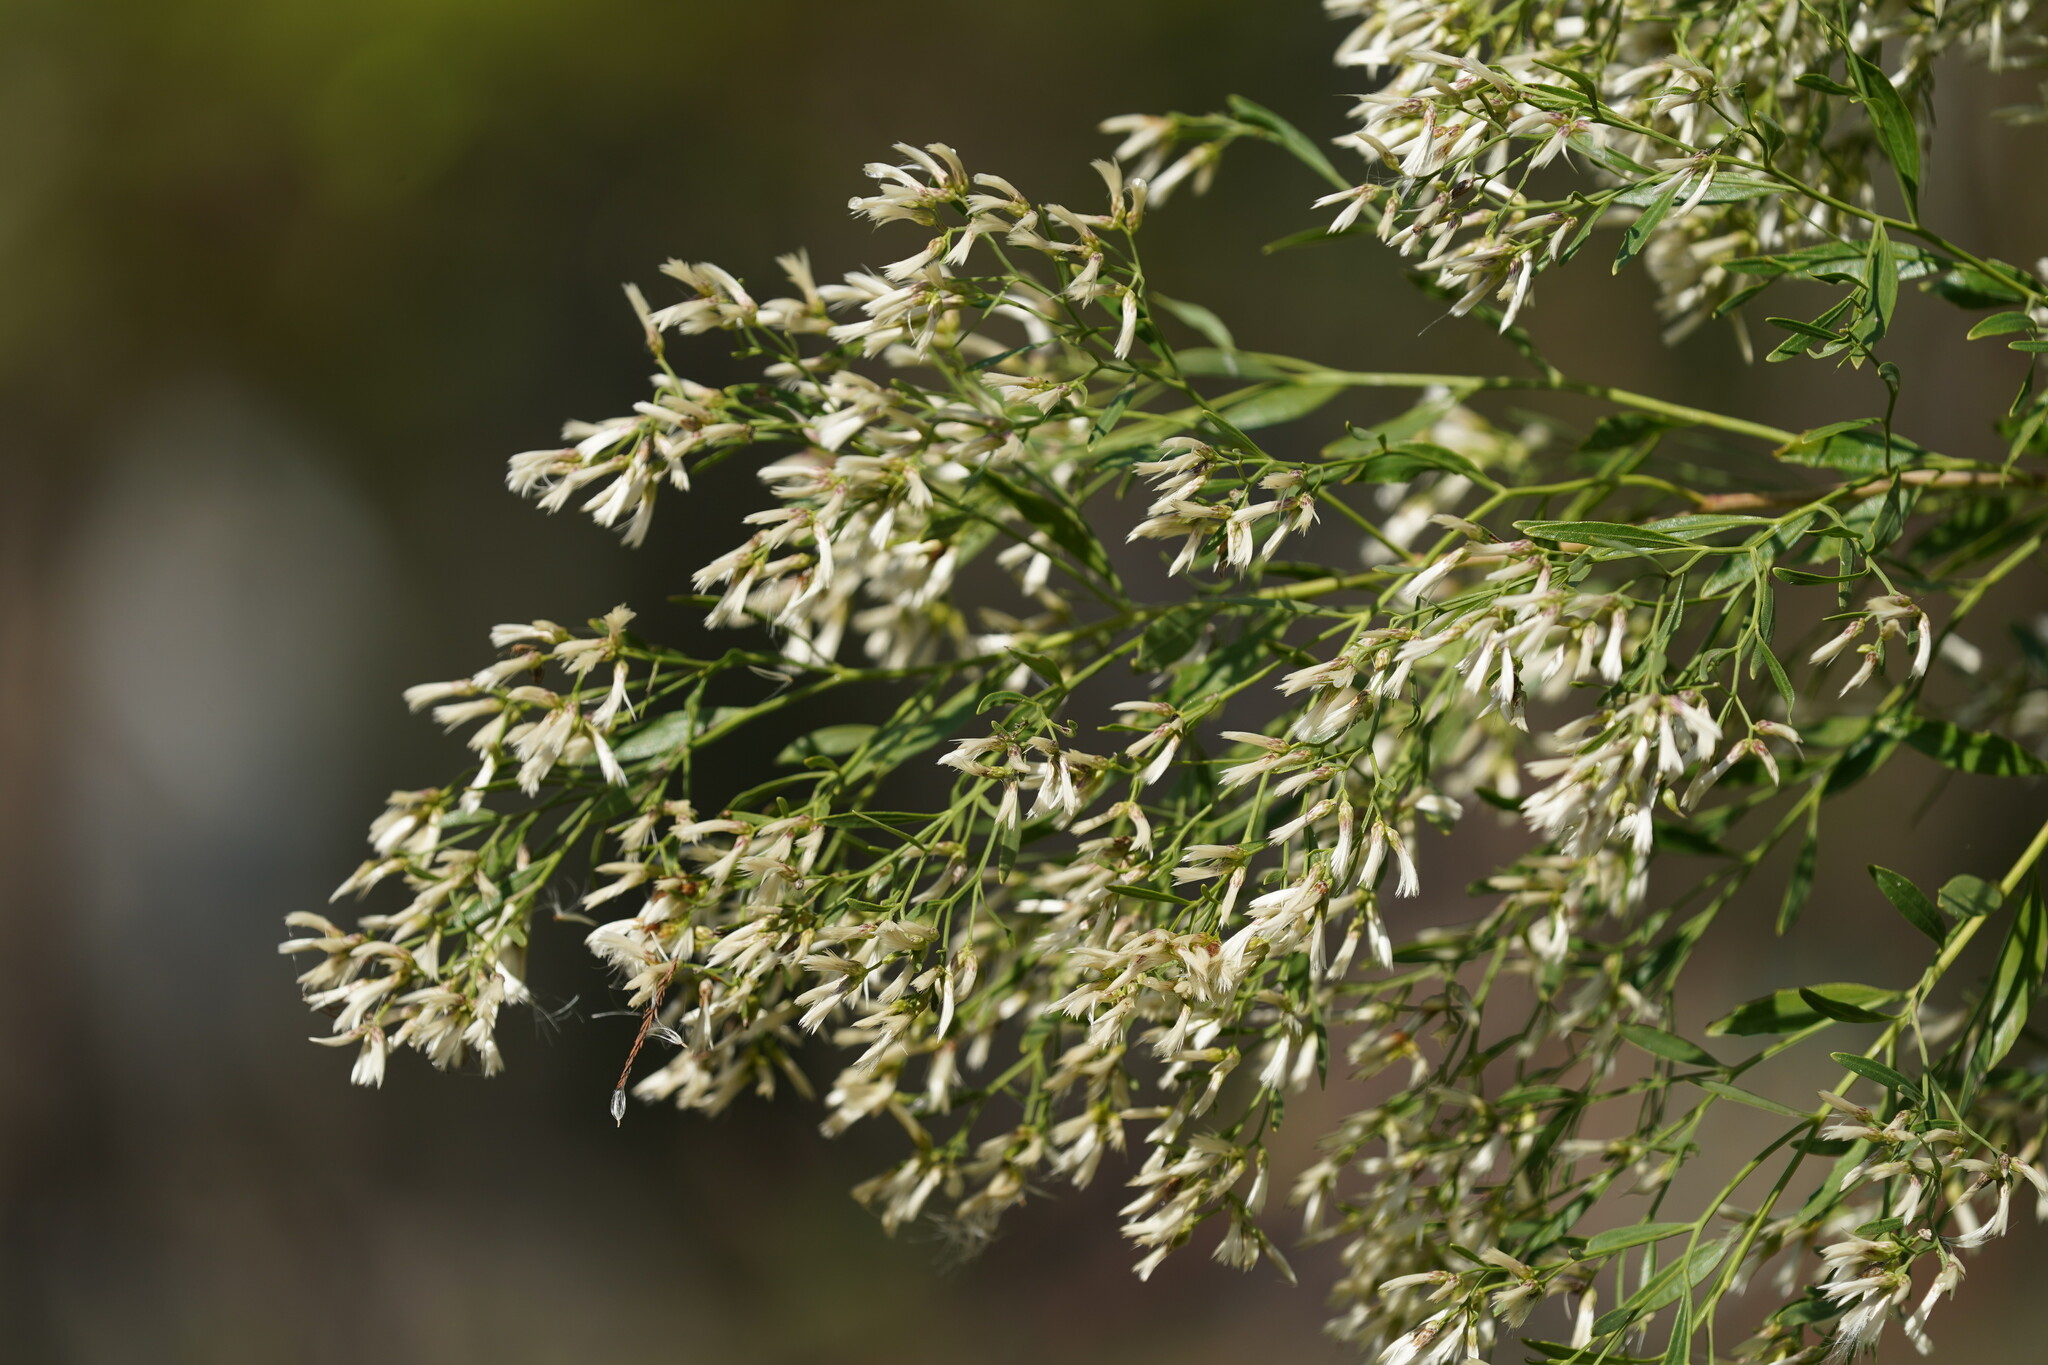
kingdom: Plantae
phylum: Tracheophyta
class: Magnoliopsida
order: Asterales
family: Asteraceae
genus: Baccharis
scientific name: Baccharis halimifolia
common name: Eastern baccharis
